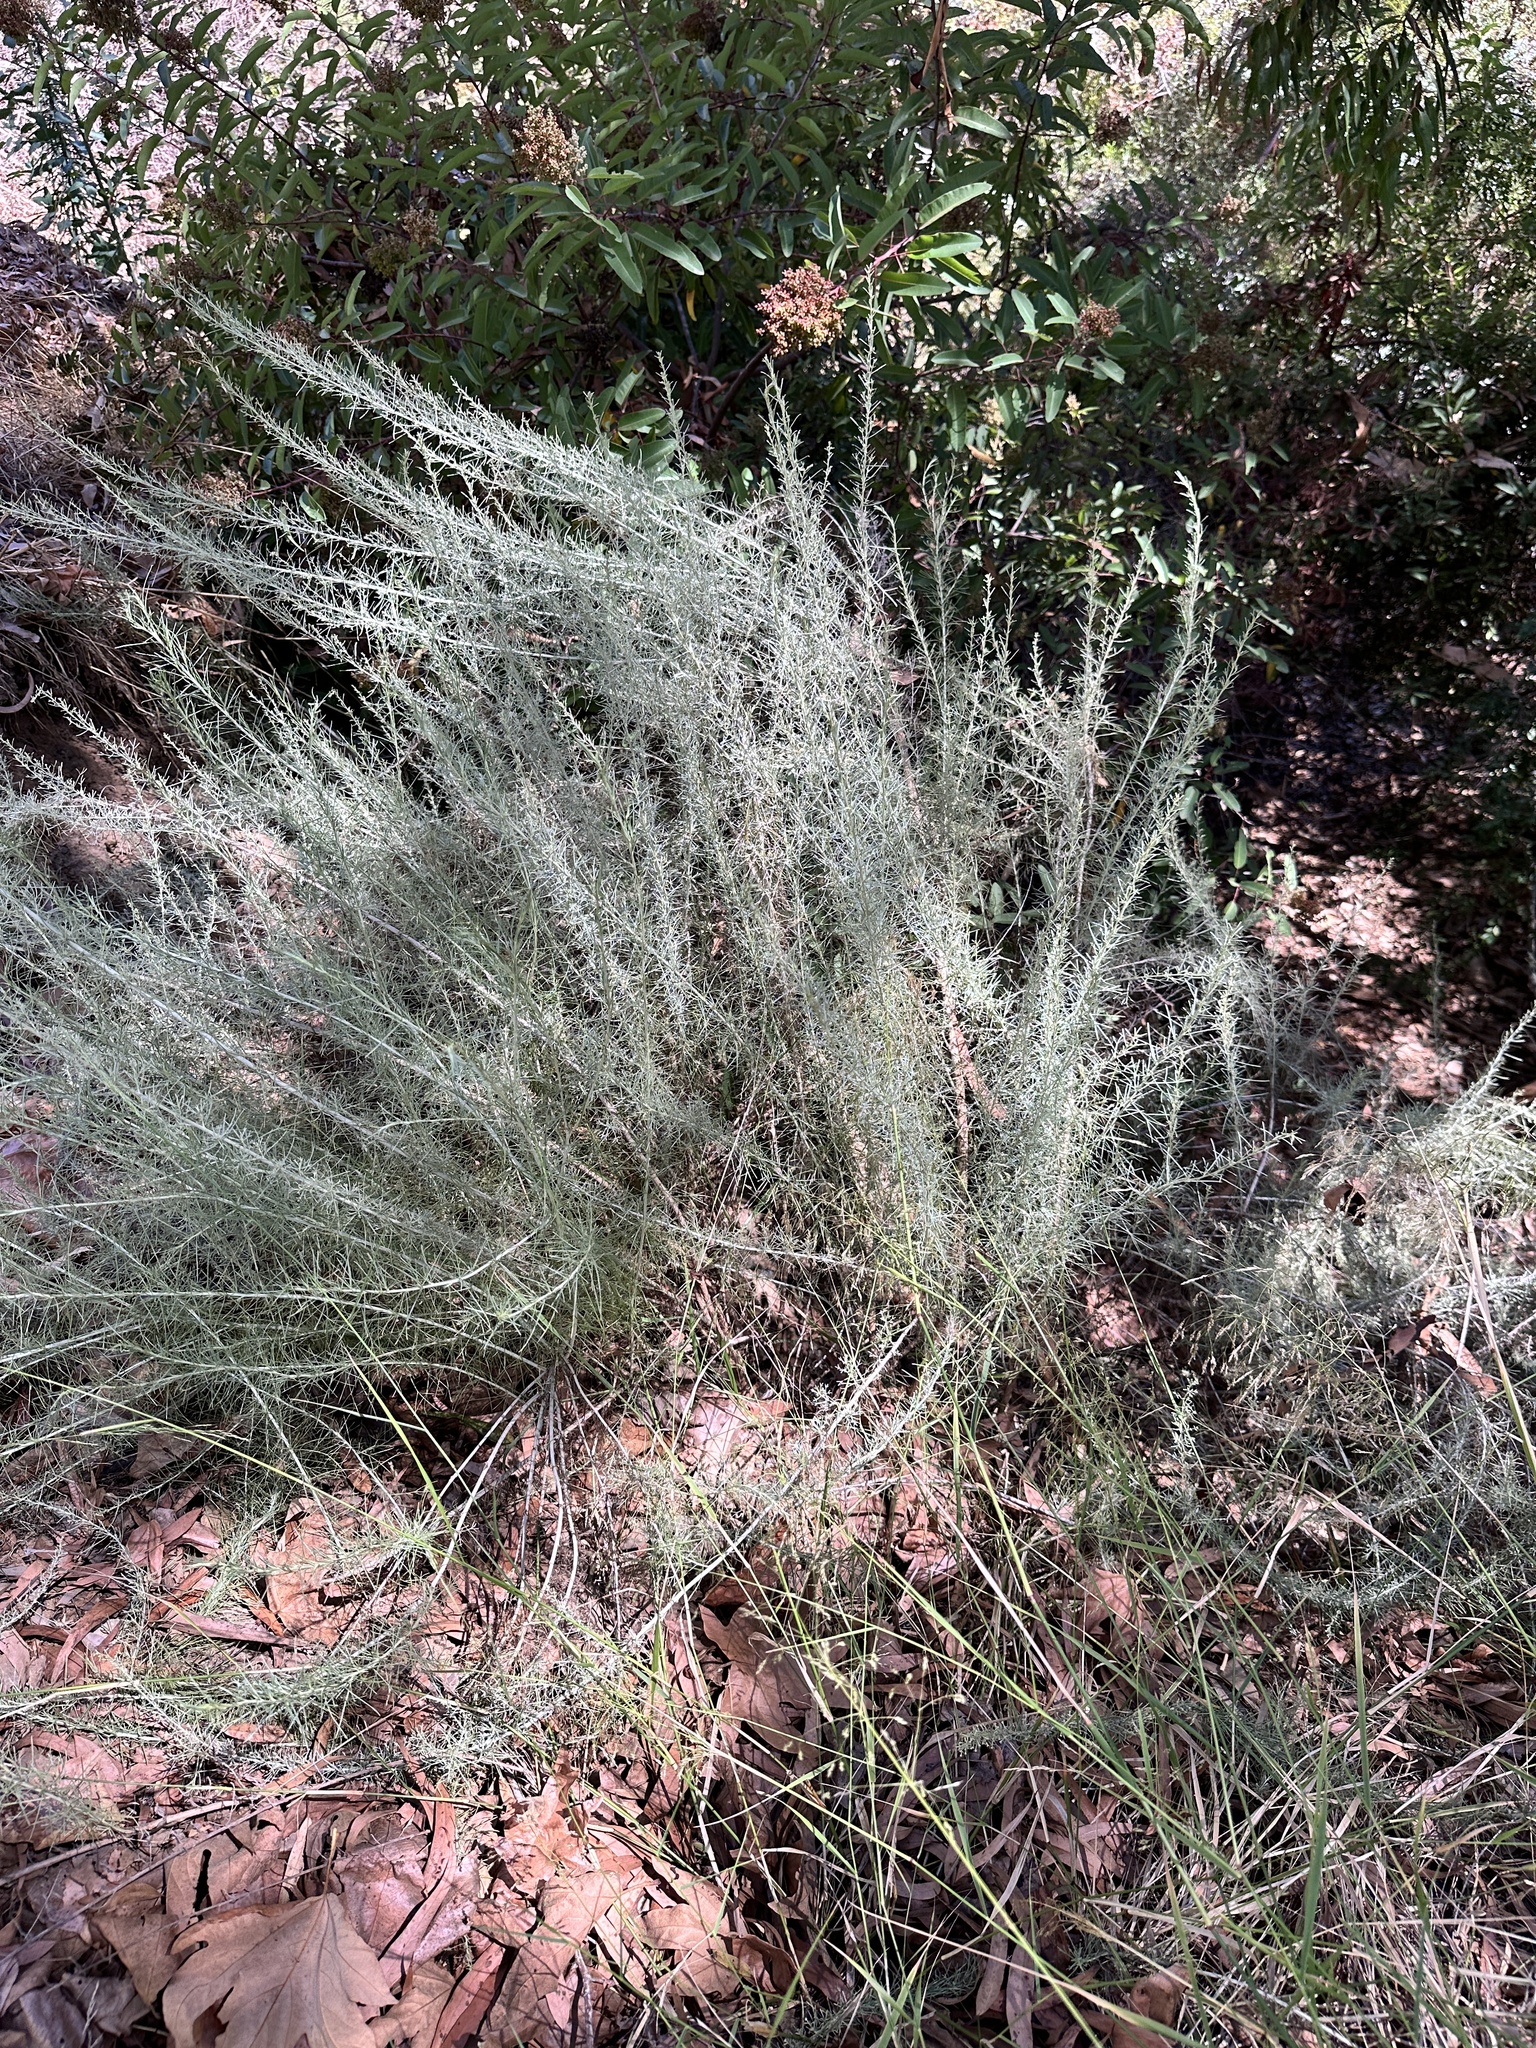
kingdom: Plantae
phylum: Tracheophyta
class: Magnoliopsida
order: Asterales
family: Asteraceae
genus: Artemisia
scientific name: Artemisia californica
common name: California sagebrush
